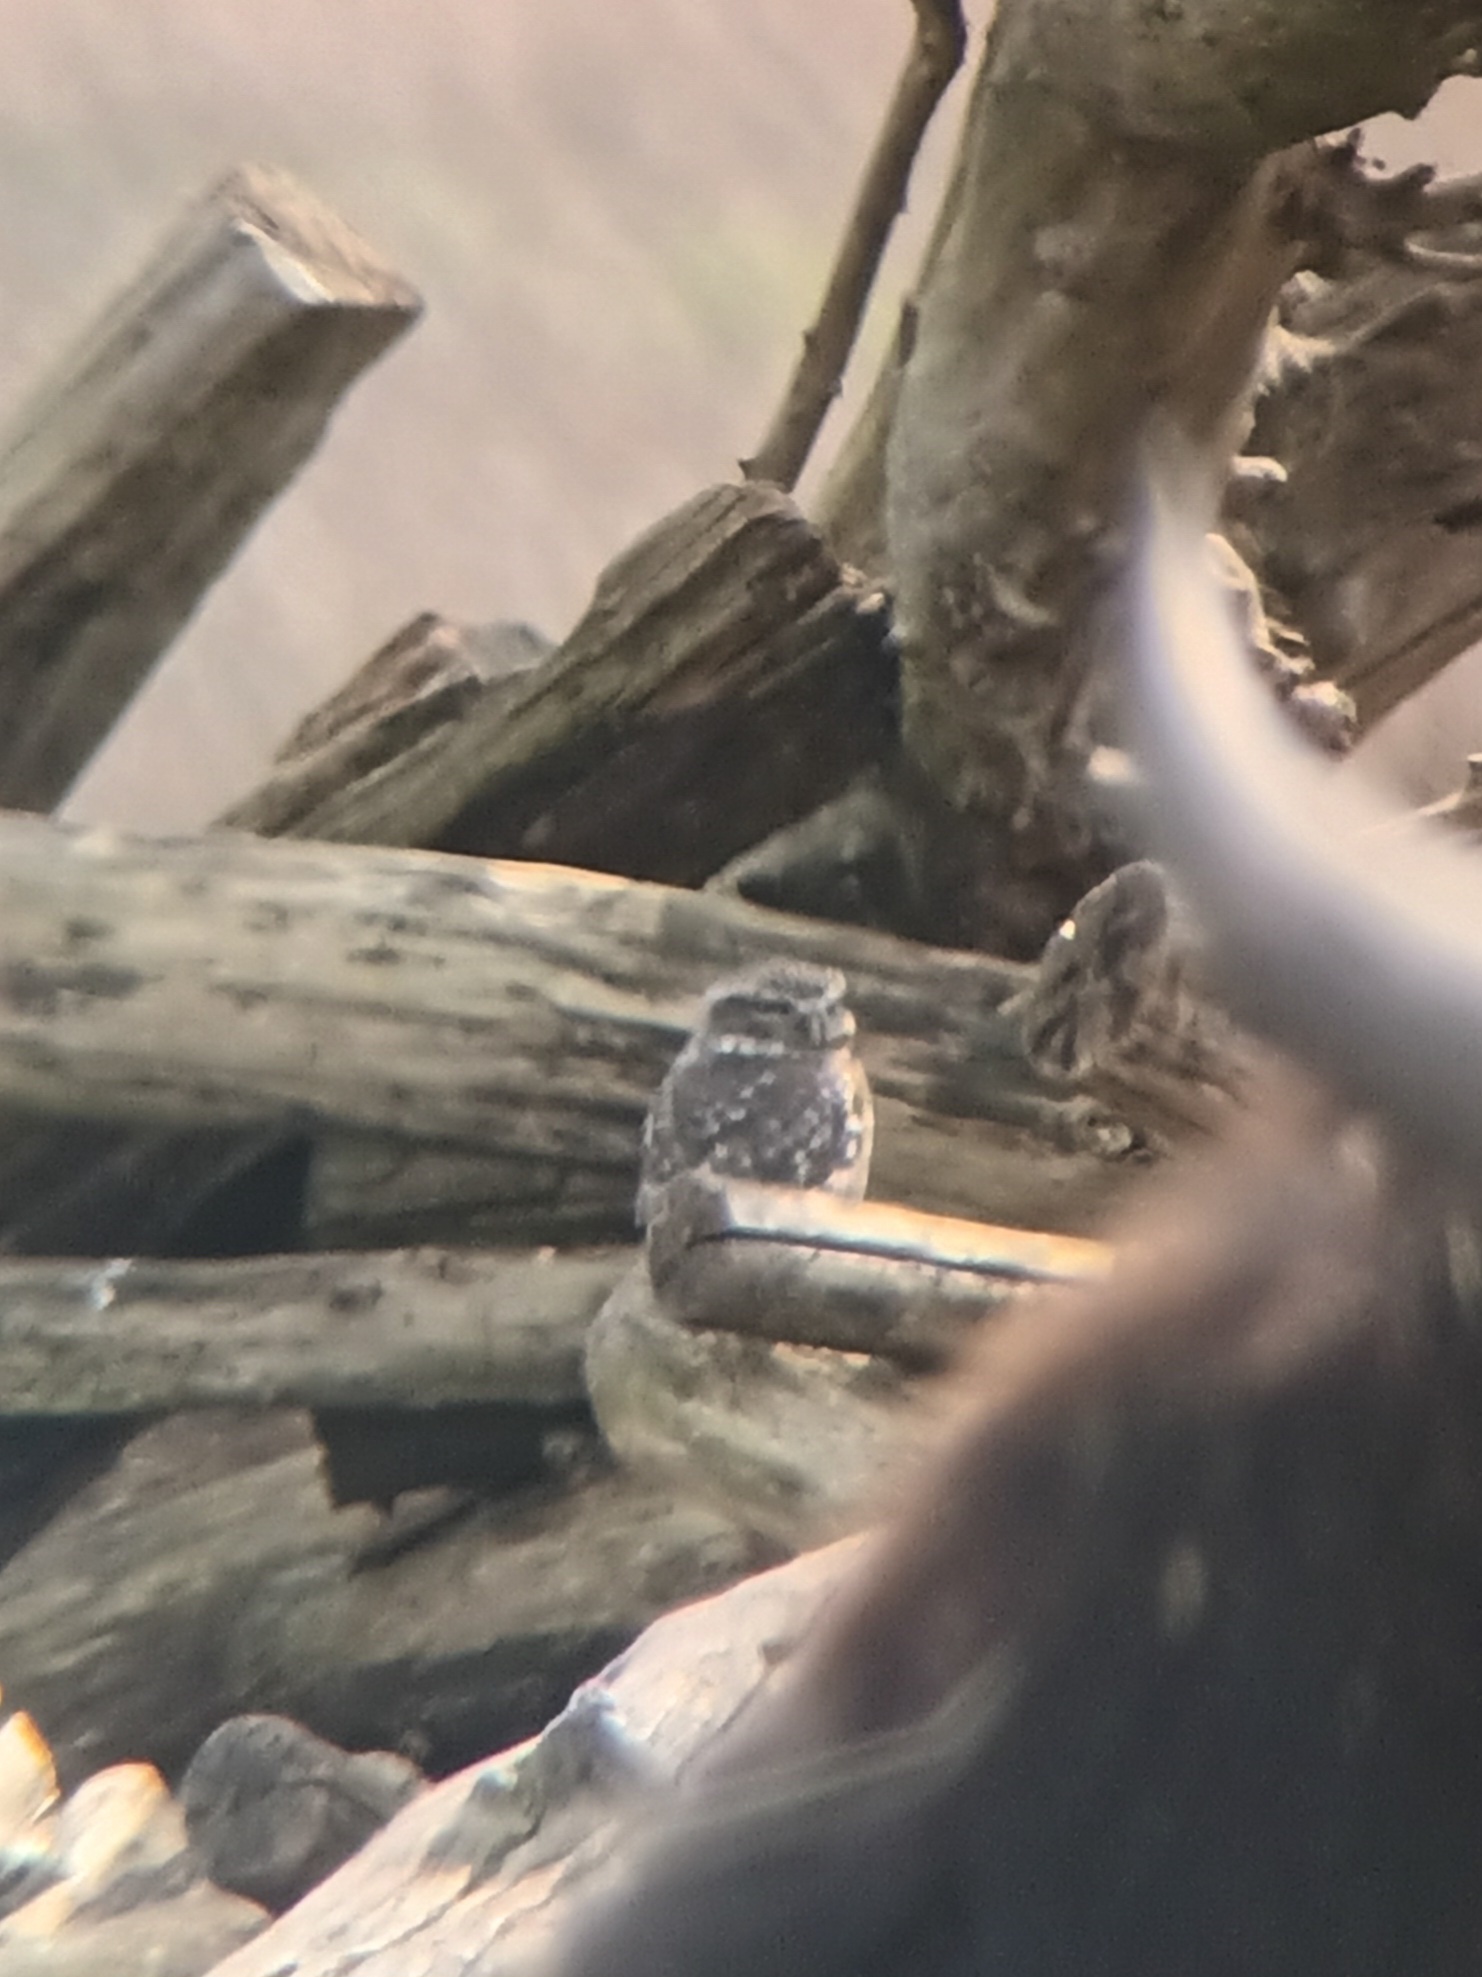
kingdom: Animalia
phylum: Chordata
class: Aves
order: Strigiformes
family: Strigidae
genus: Athene
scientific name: Athene noctua
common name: Little owl
